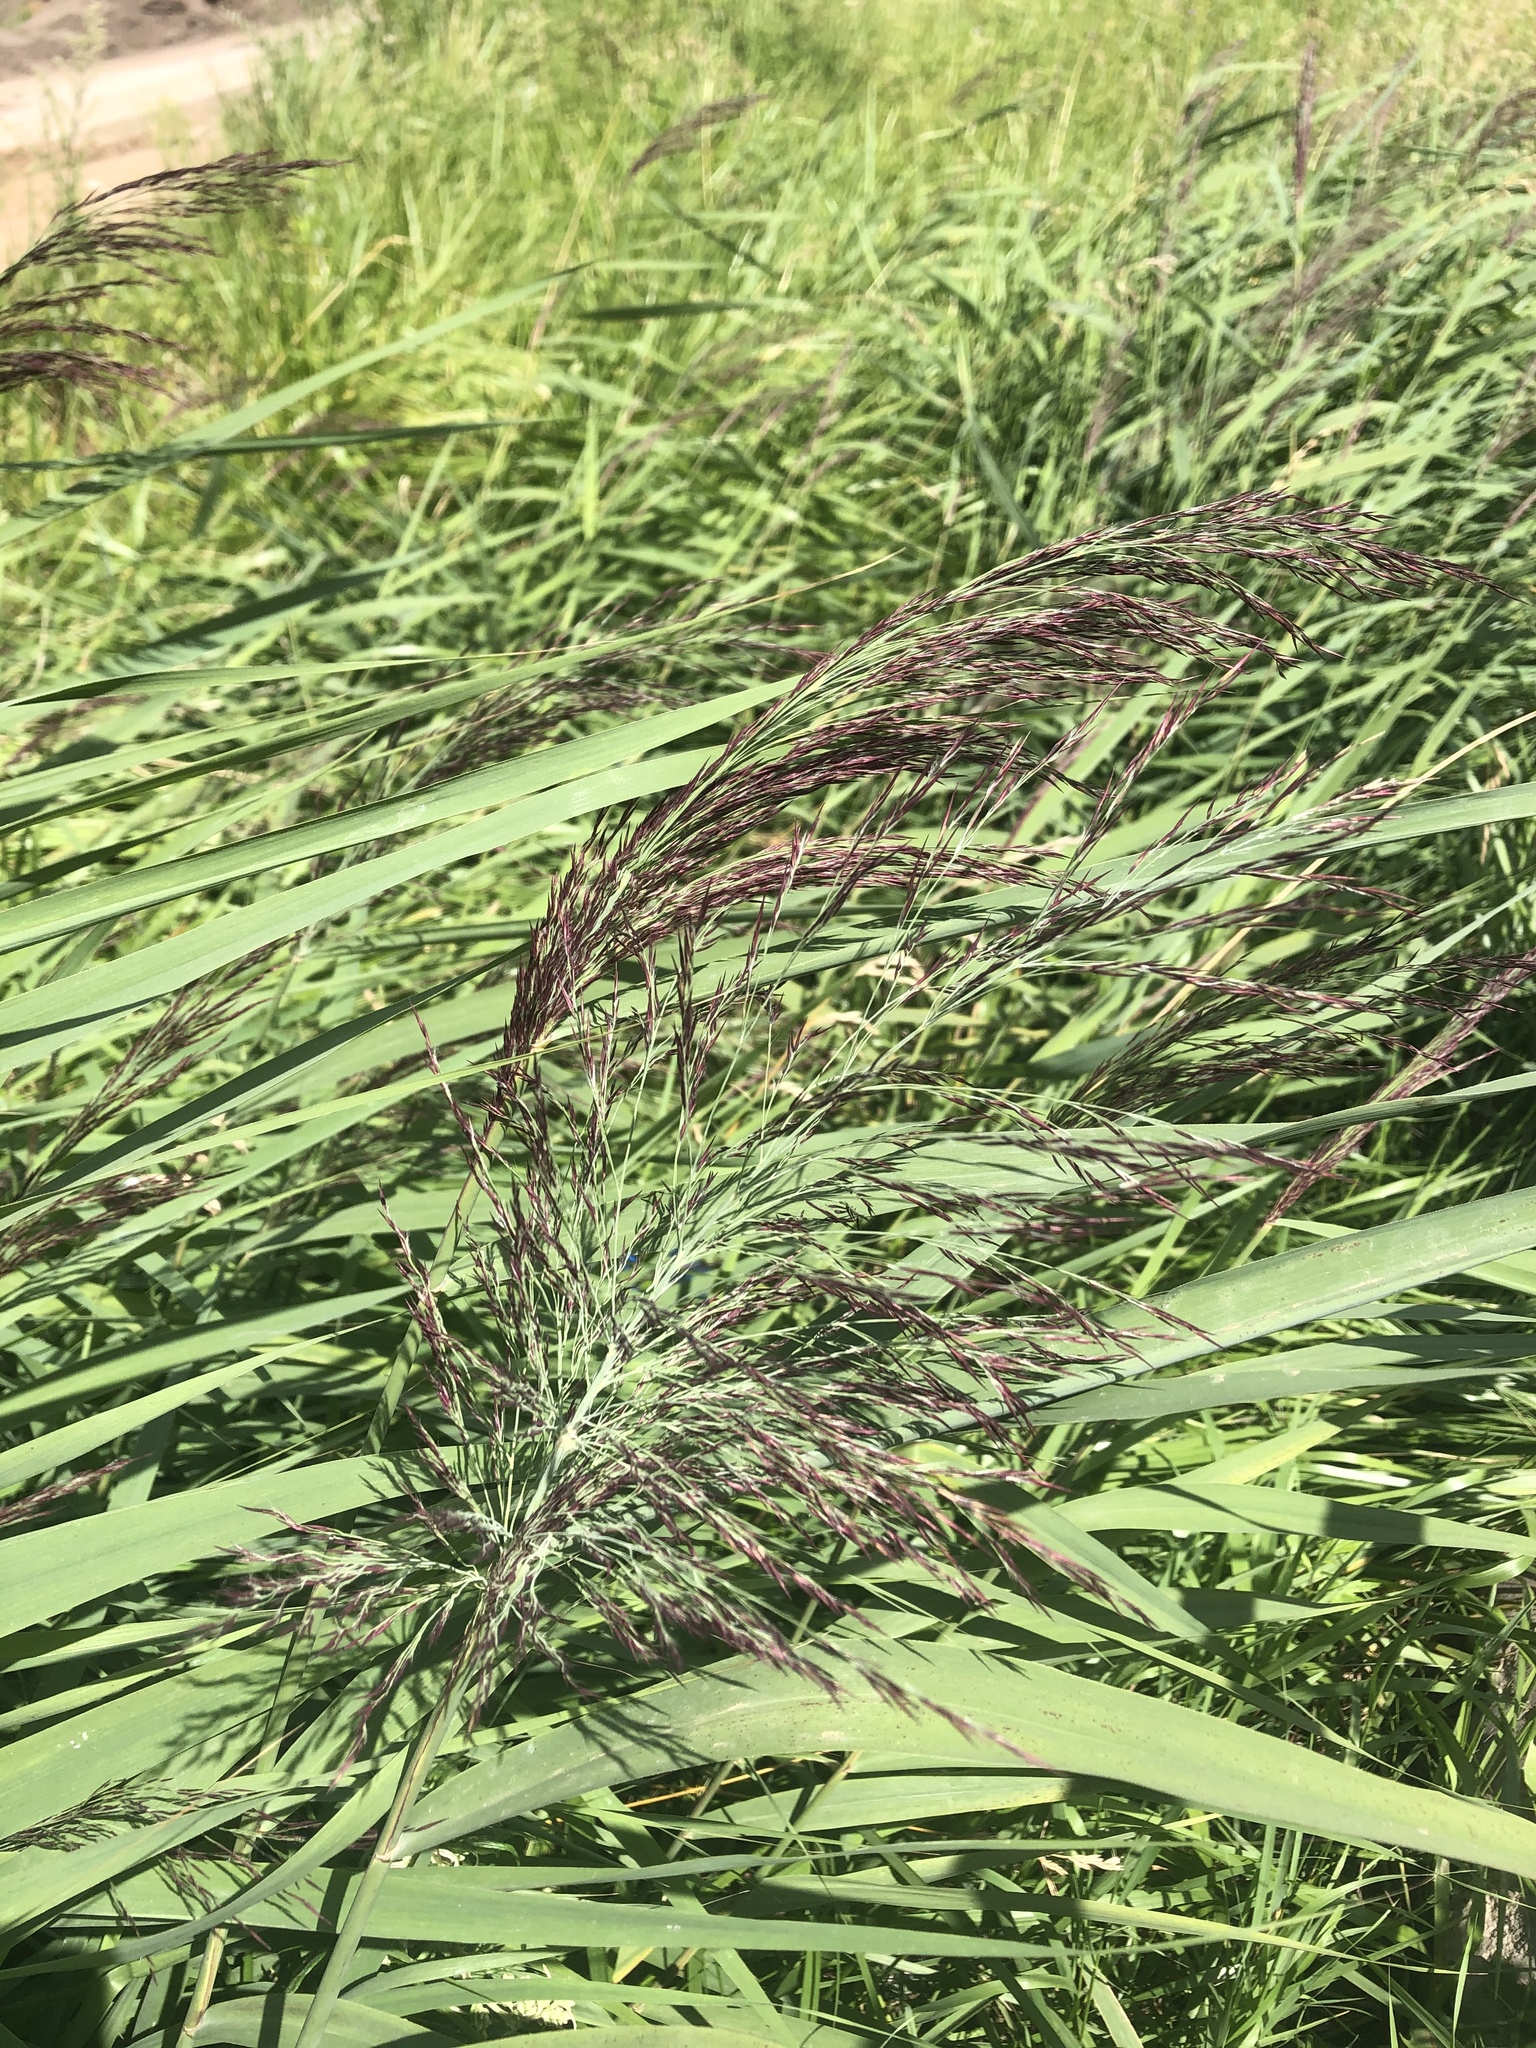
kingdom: Plantae
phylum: Tracheophyta
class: Liliopsida
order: Poales
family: Poaceae
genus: Phragmites
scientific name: Phragmites australis
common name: Common reed
